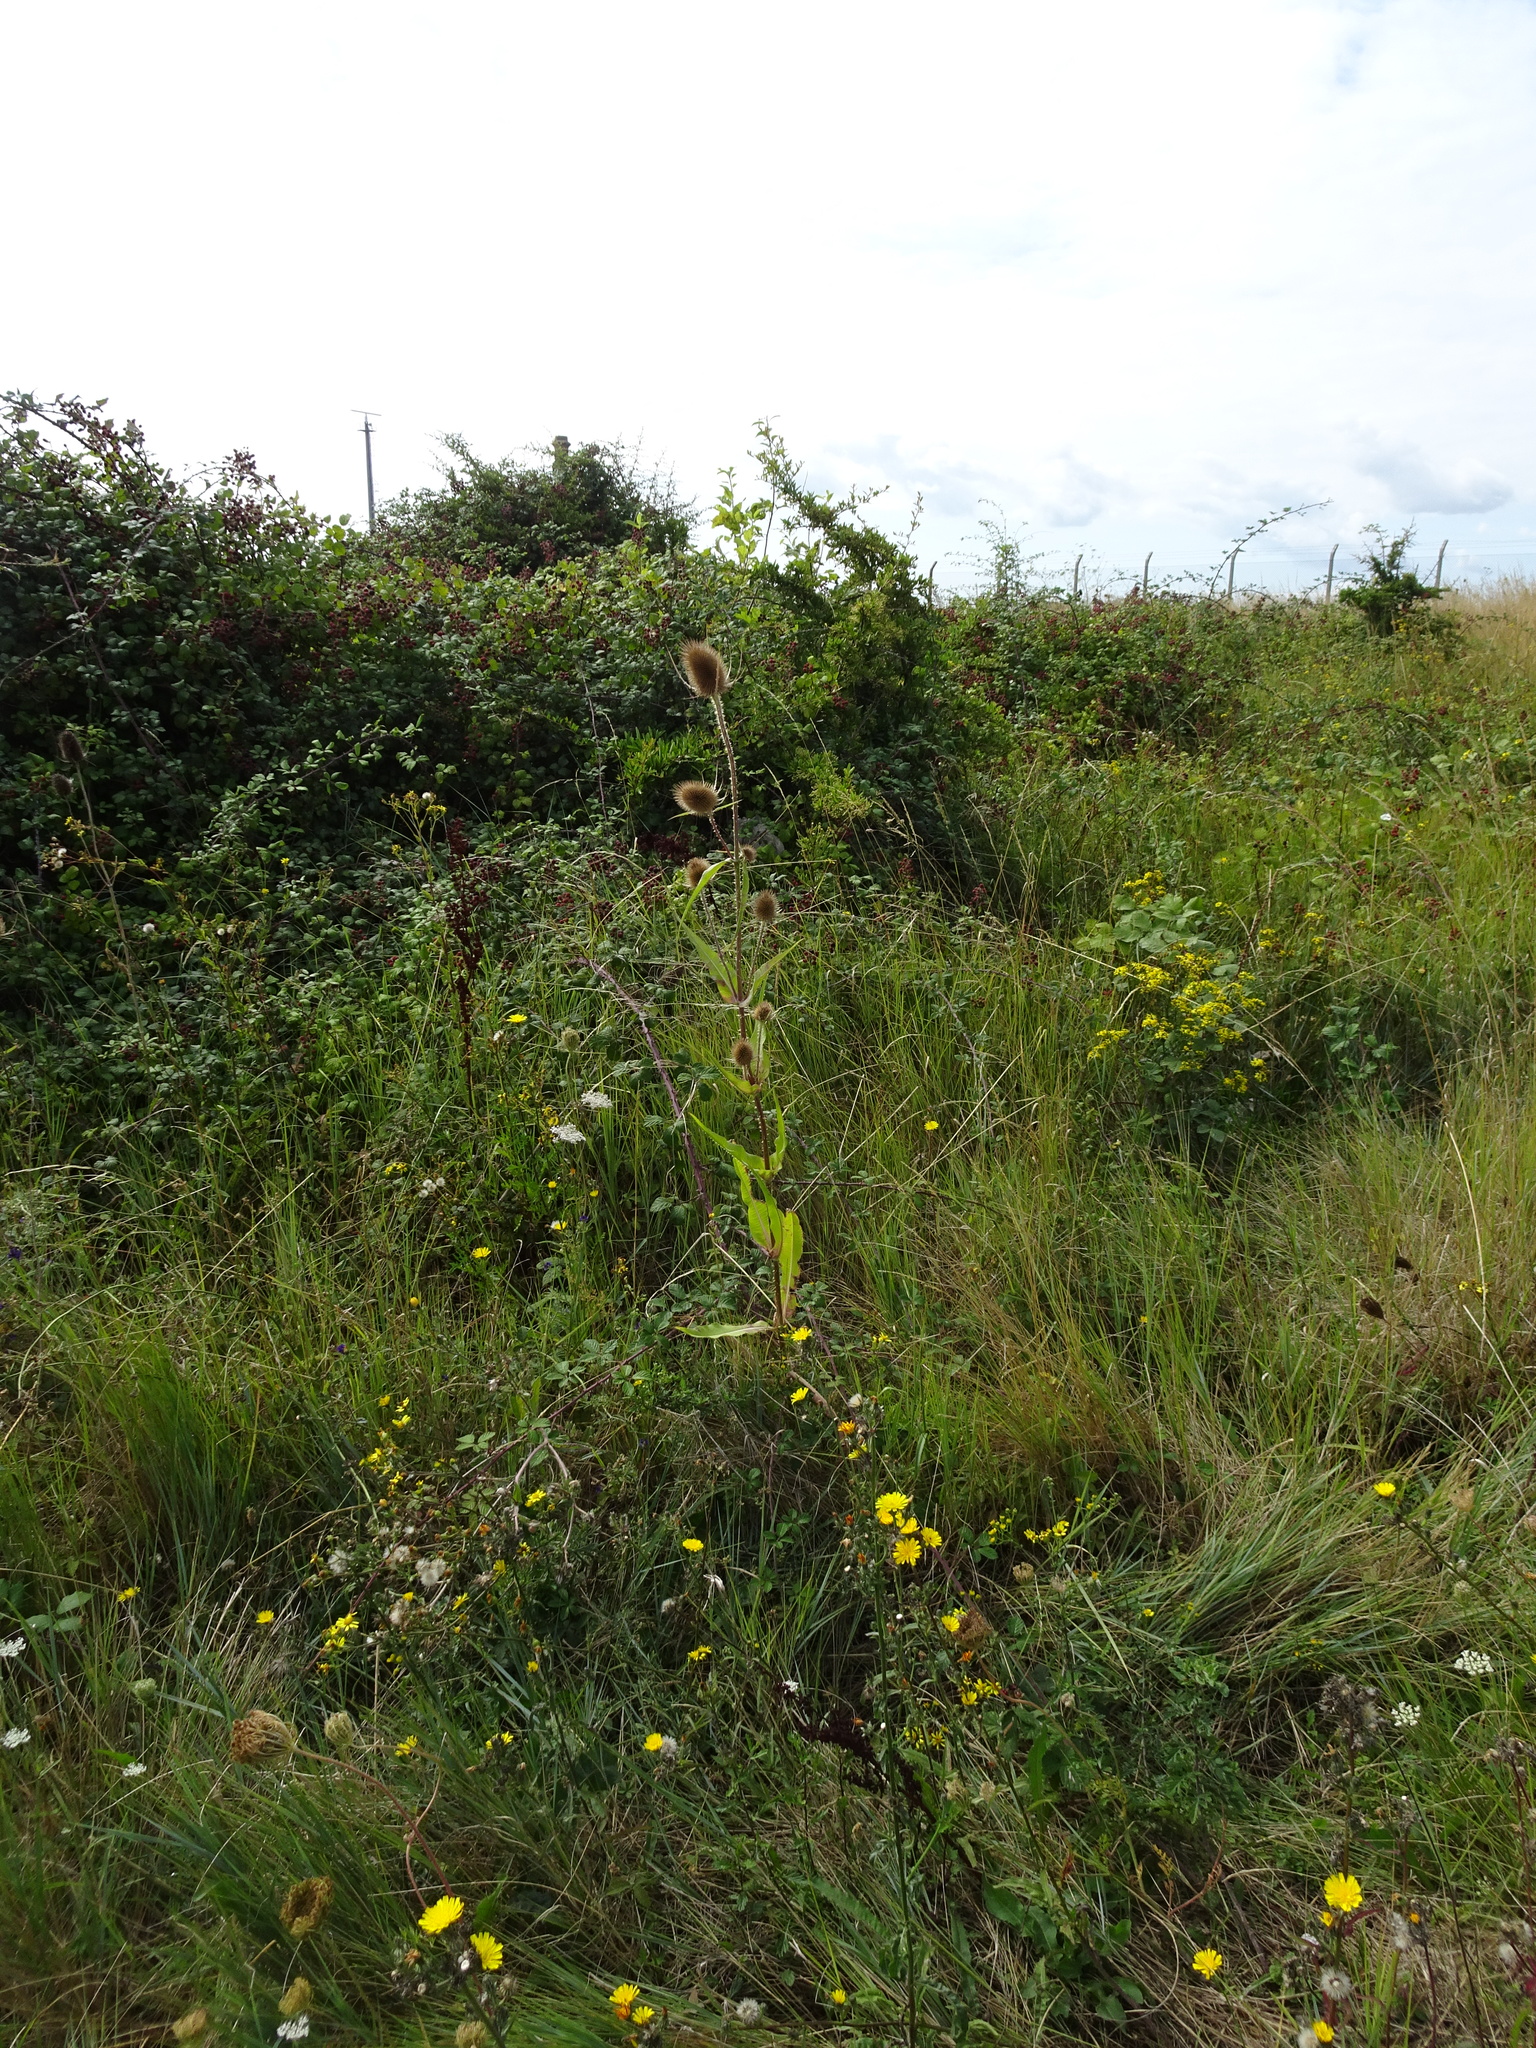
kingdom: Plantae
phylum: Tracheophyta
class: Magnoliopsida
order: Dipsacales
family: Caprifoliaceae
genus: Dipsacus
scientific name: Dipsacus fullonum
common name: Teasel
